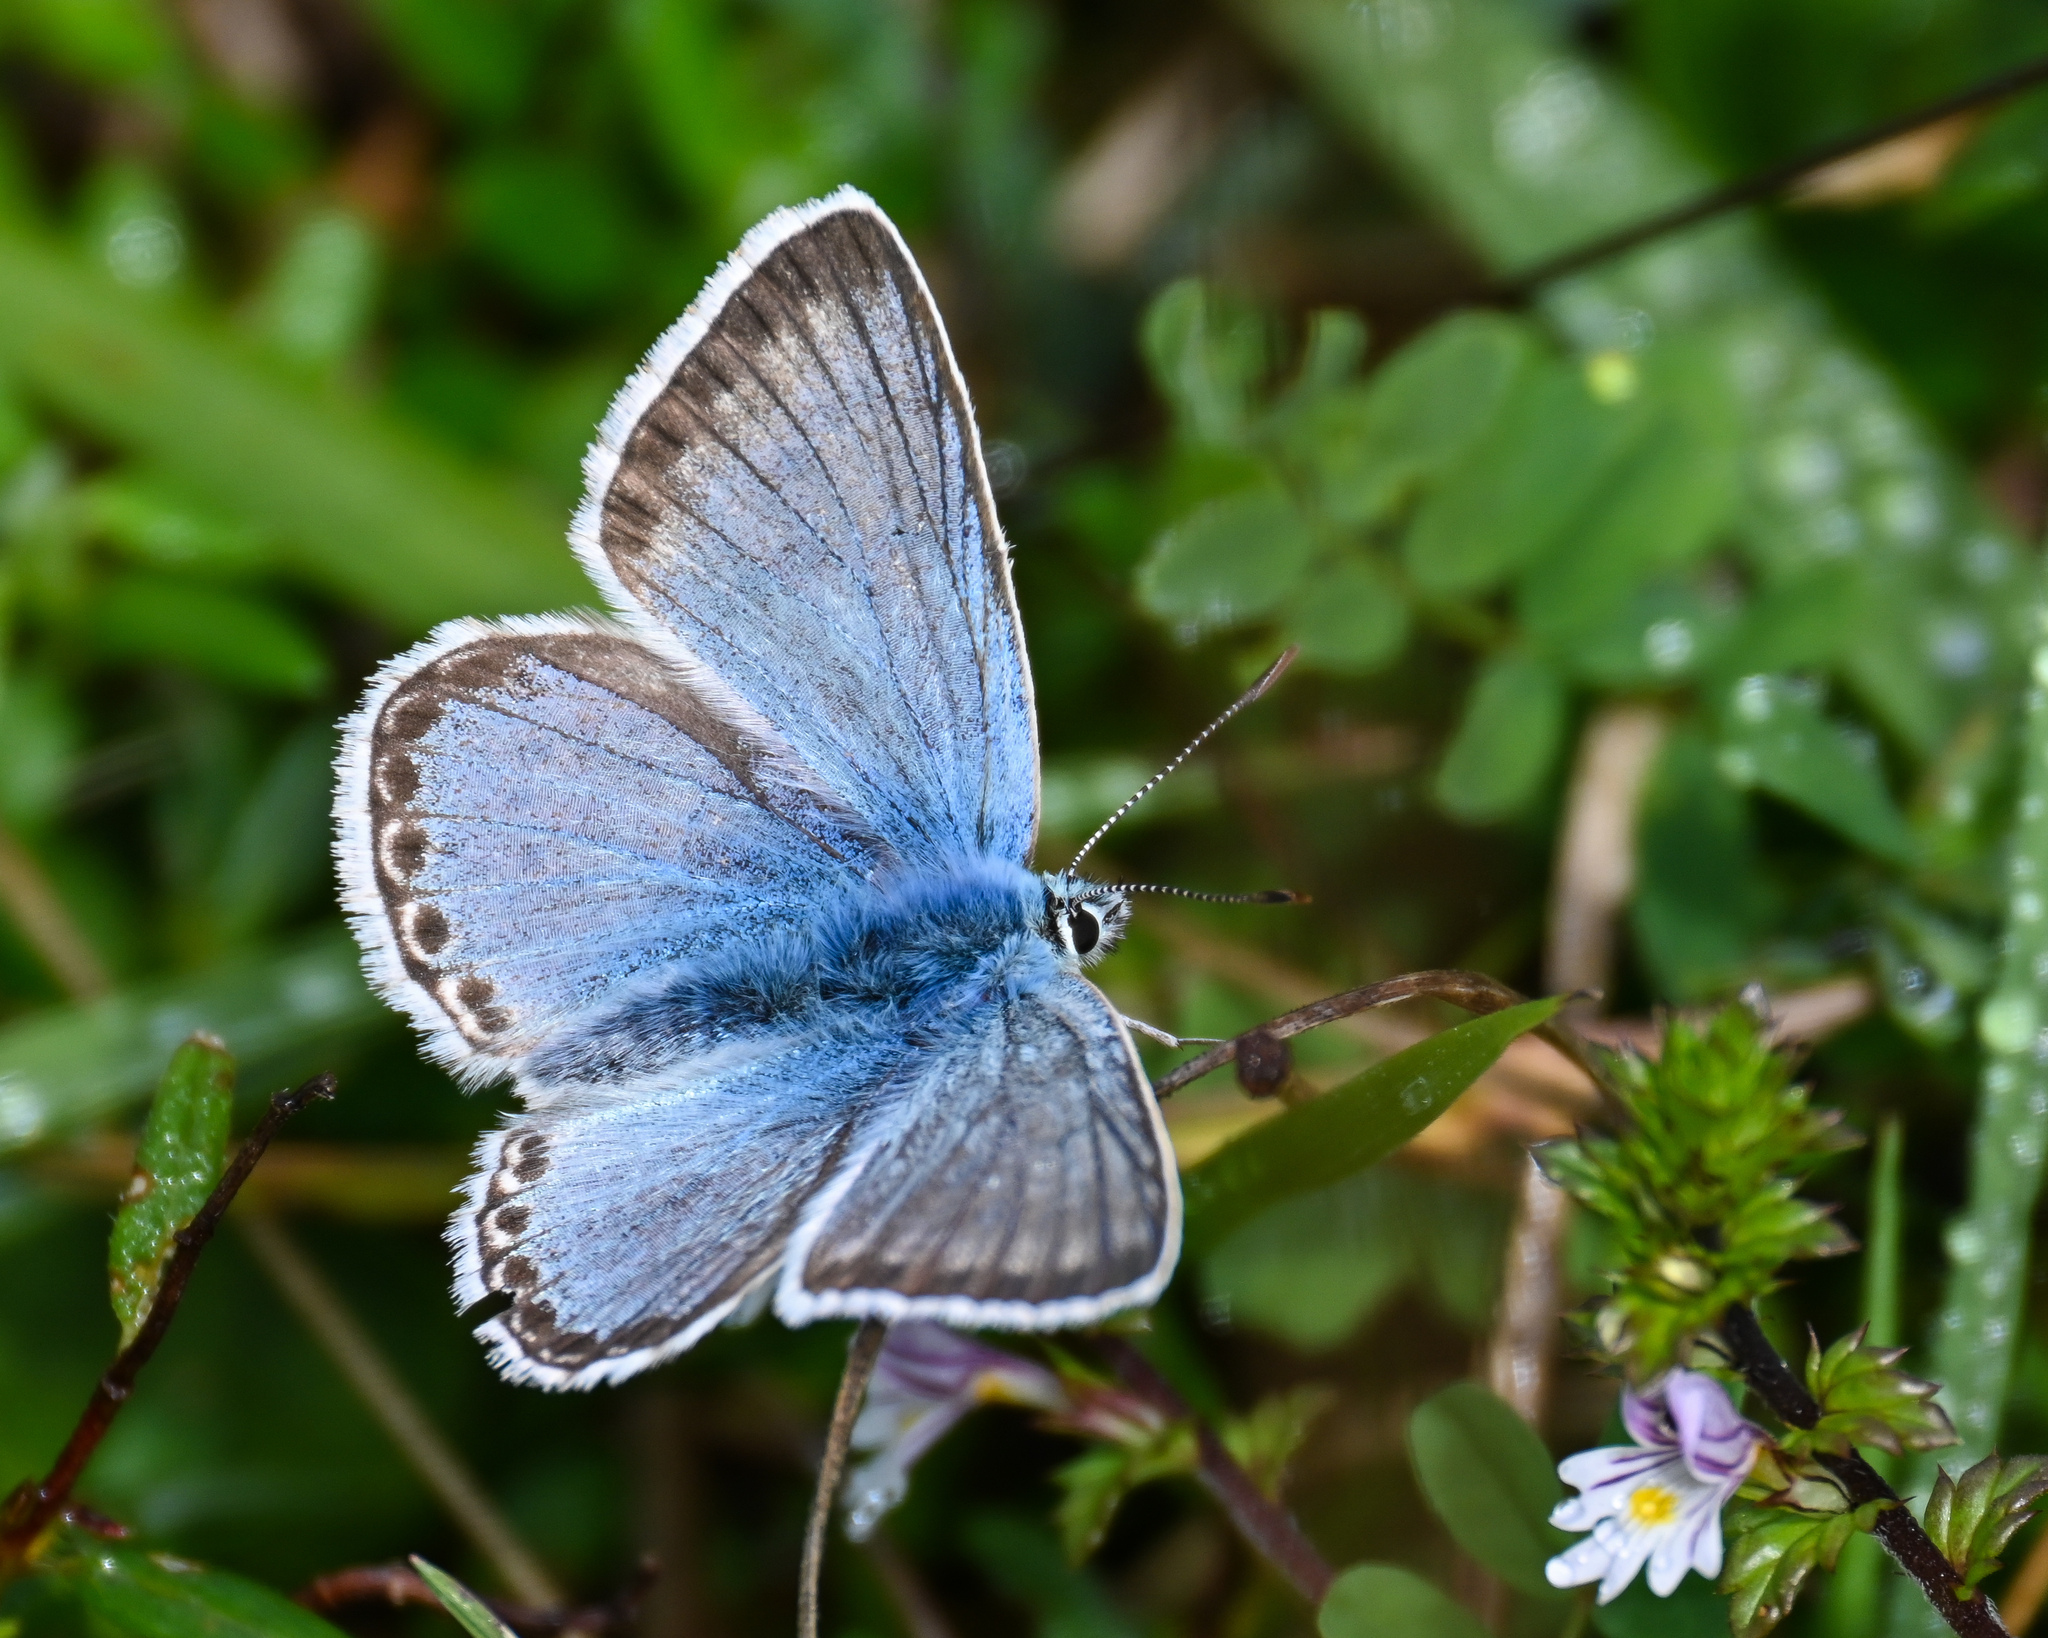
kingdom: Animalia
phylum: Arthropoda
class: Insecta
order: Lepidoptera
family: Lycaenidae
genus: Lysandra
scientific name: Lysandra coridon
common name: Chalkhill blue
